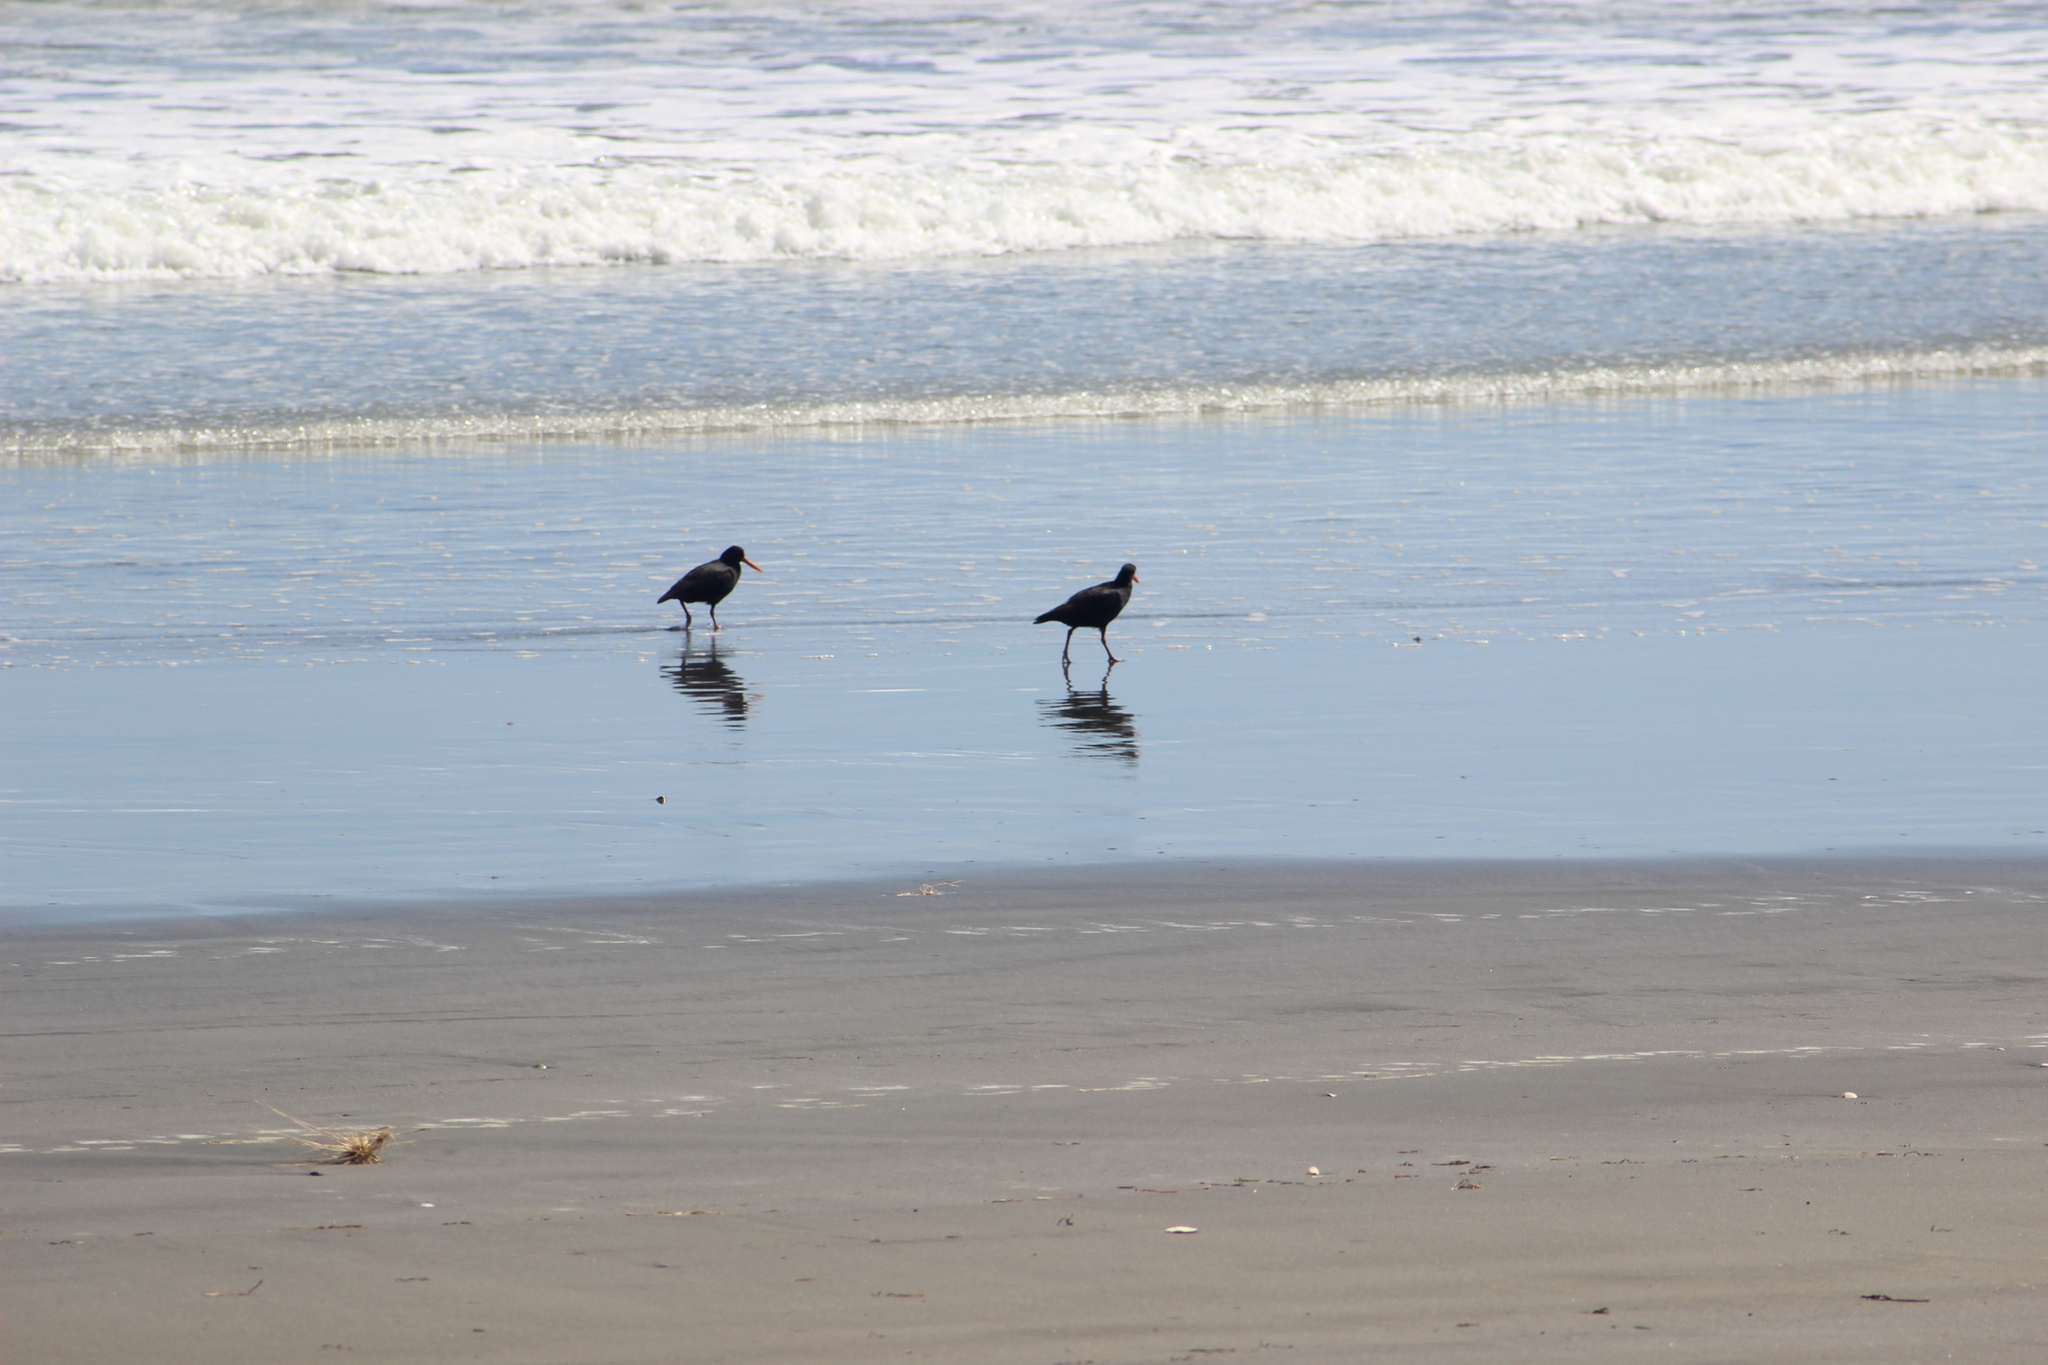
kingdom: Animalia
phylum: Chordata
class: Aves
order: Charadriiformes
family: Haematopodidae
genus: Haematopus
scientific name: Haematopus unicolor
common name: Variable oystercatcher
